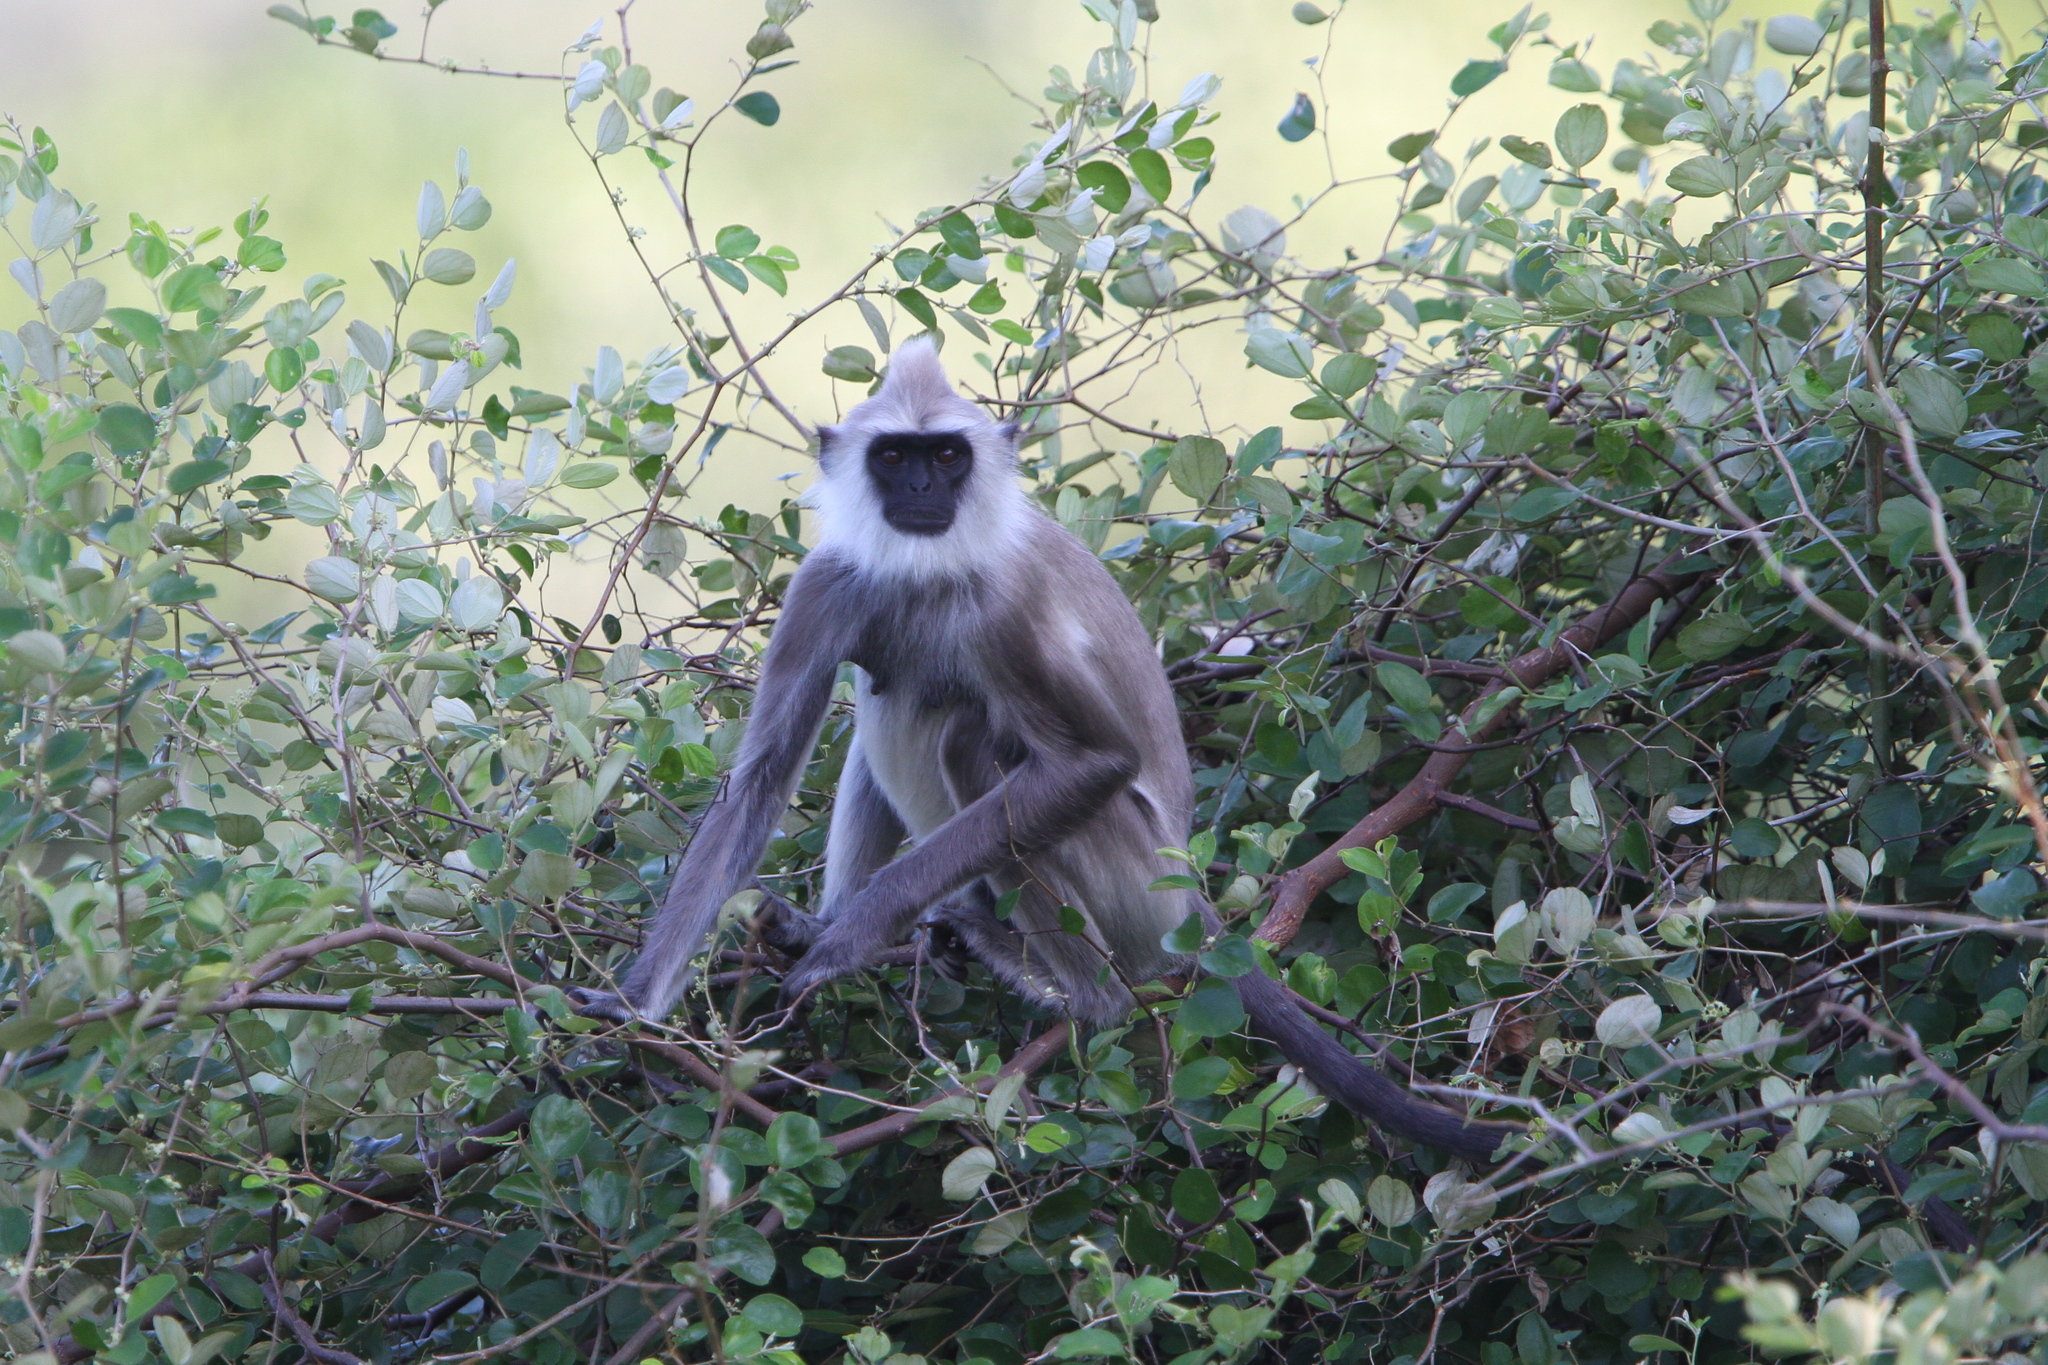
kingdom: Animalia
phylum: Chordata
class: Mammalia
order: Primates
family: Cercopithecidae
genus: Semnopithecus
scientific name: Semnopithecus priam
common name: Tufted gray langur
